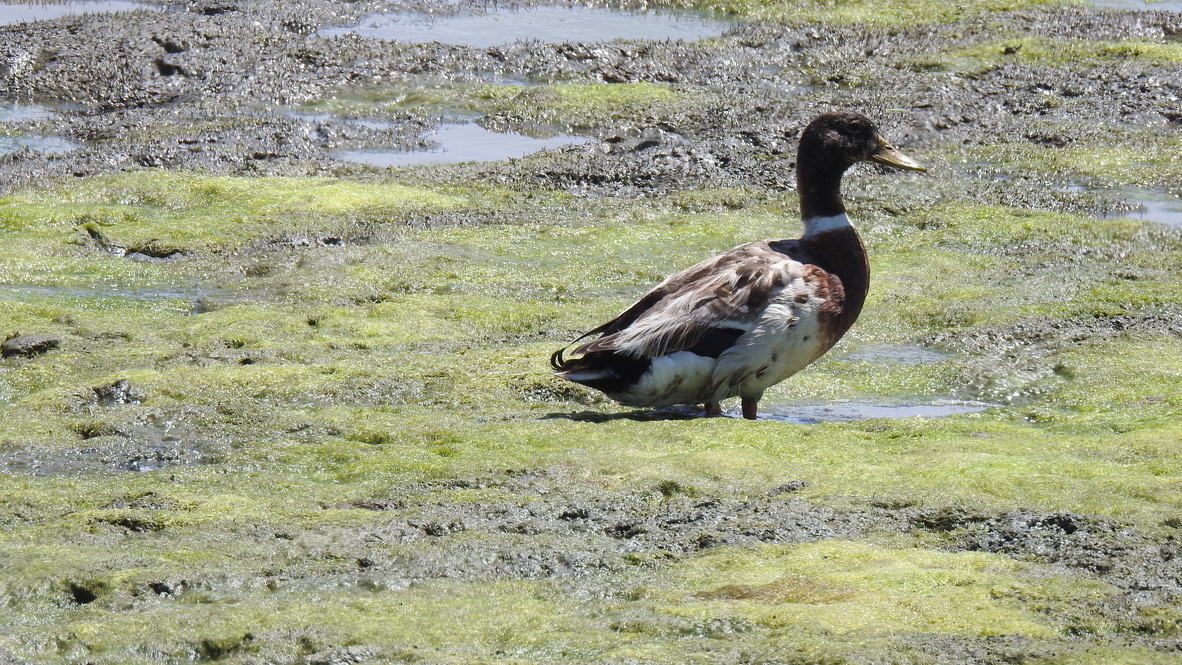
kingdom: Animalia
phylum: Chordata
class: Aves
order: Anseriformes
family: Anatidae
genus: Anas
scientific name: Anas platyrhynchos
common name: Mallard
